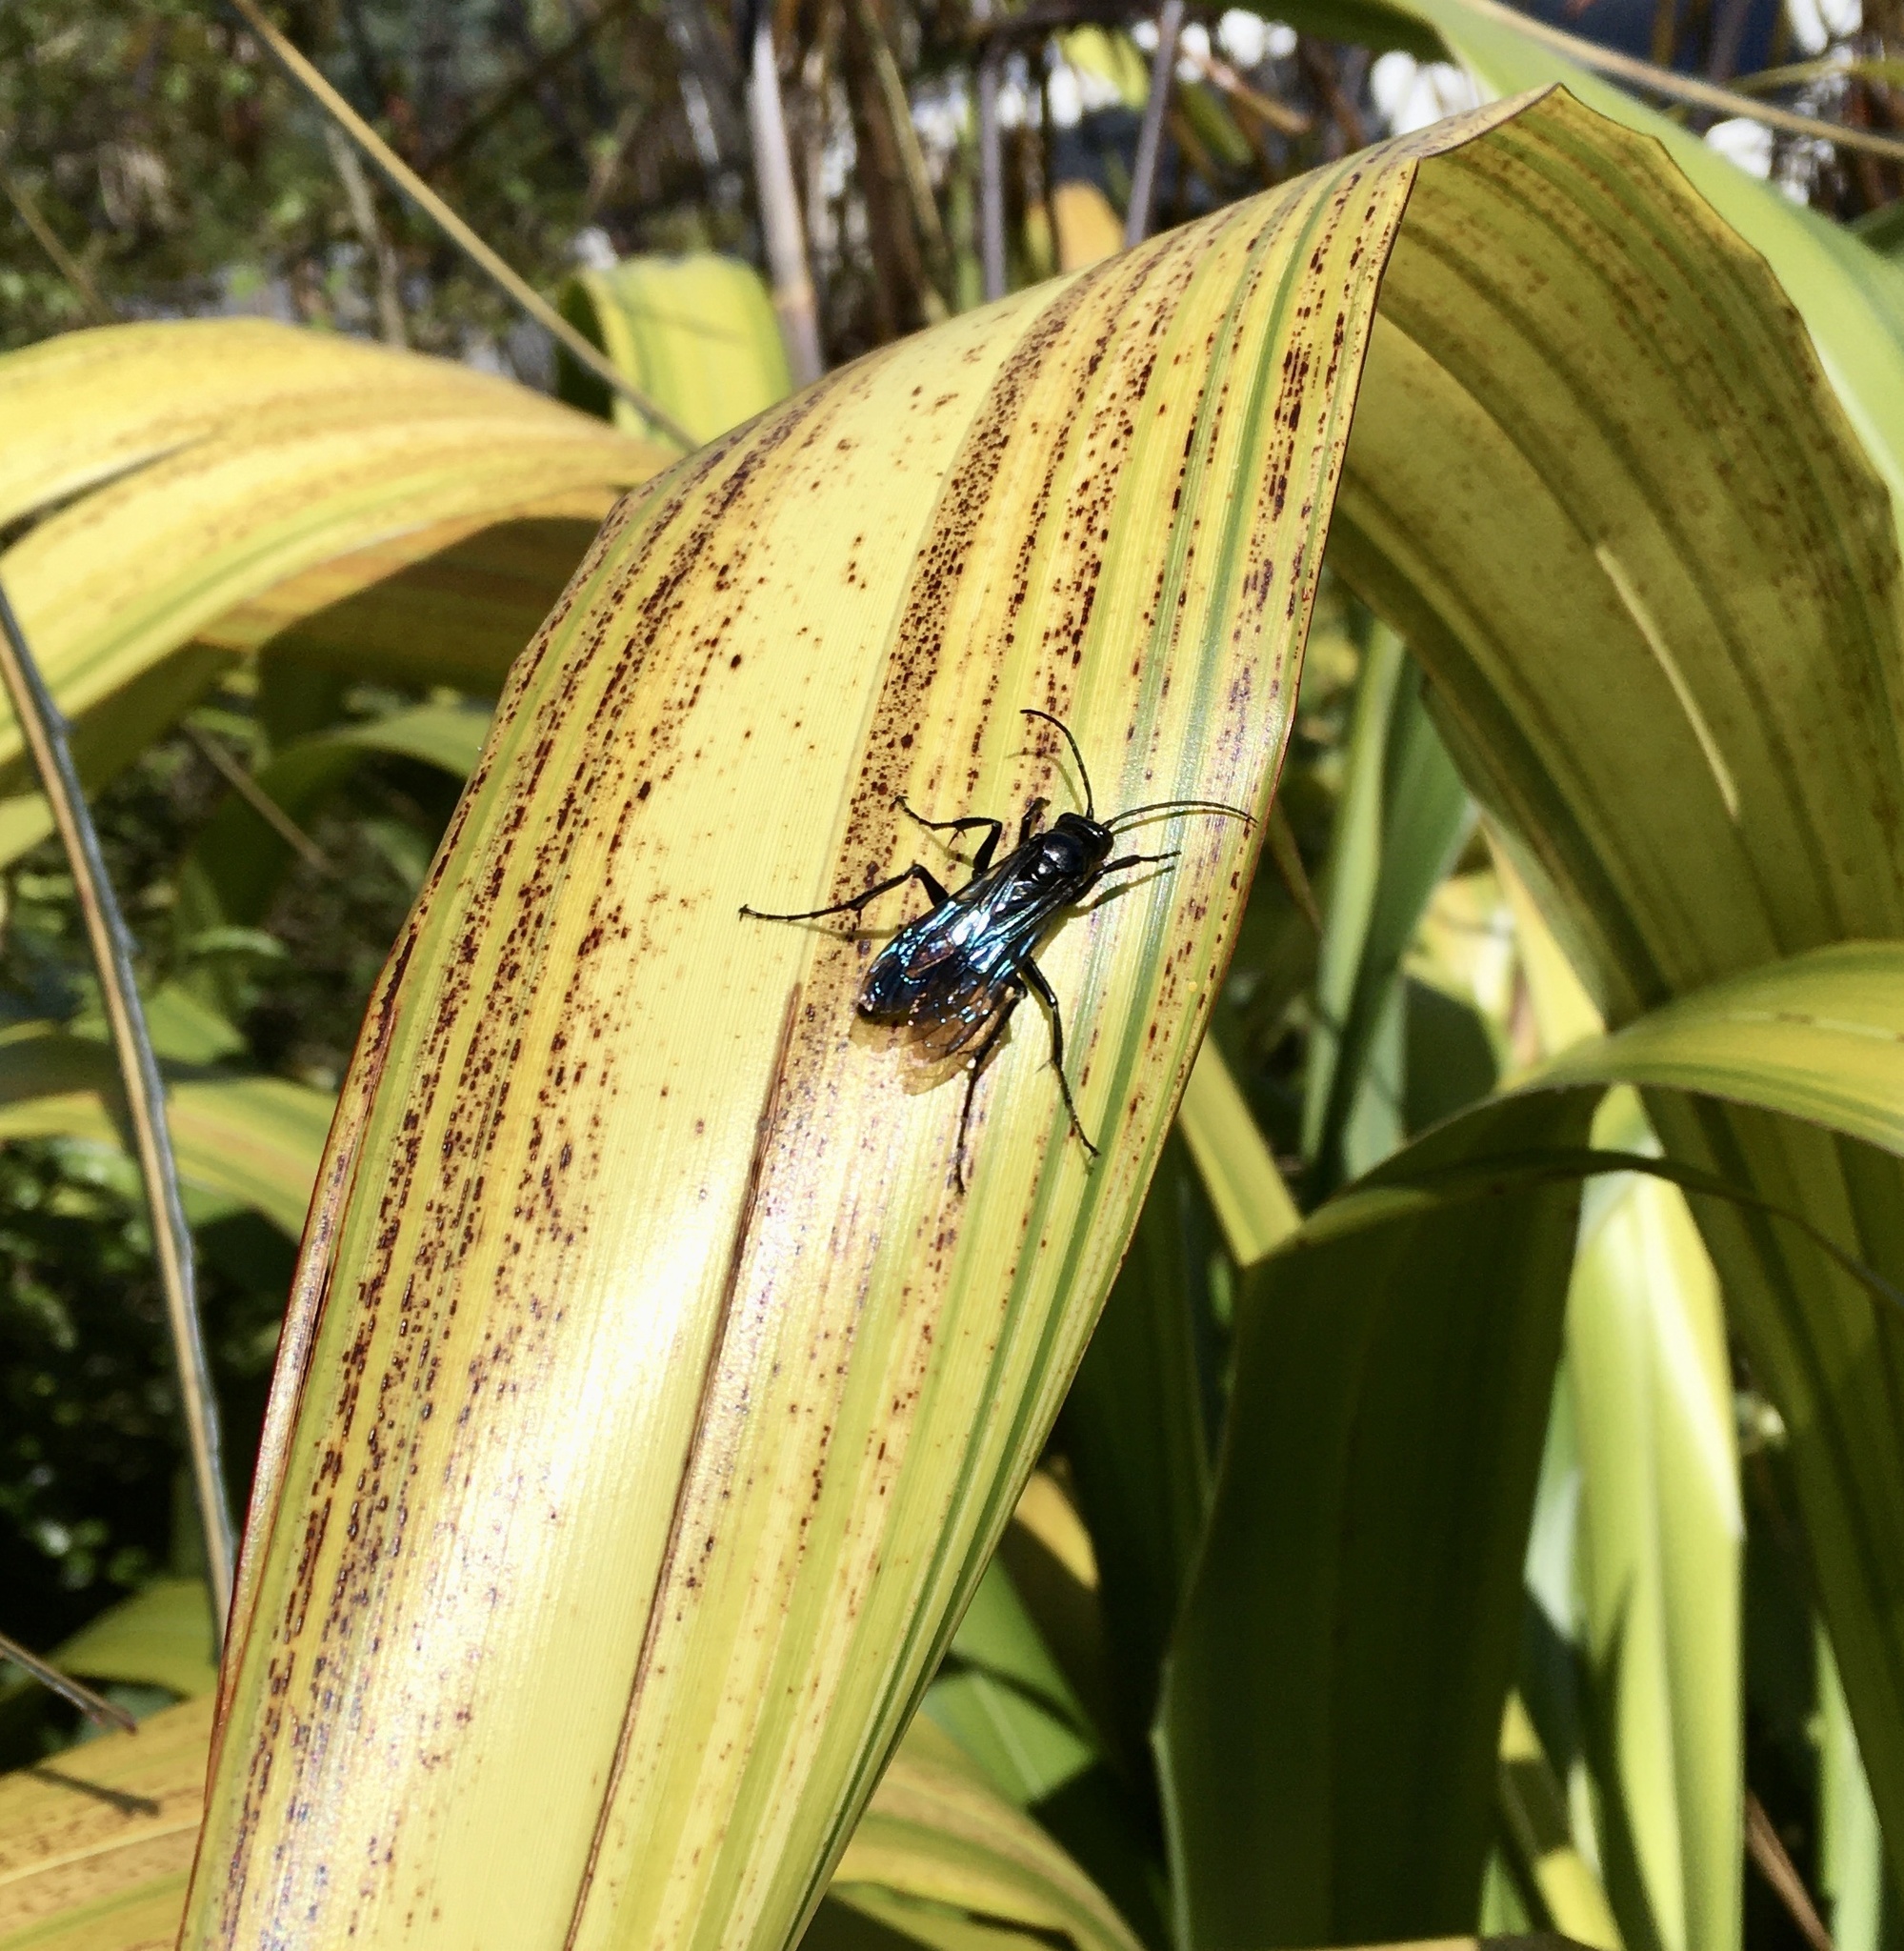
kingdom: Animalia
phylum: Arthropoda
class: Insecta
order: Hymenoptera
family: Pompilidae
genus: Priocnemis
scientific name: Priocnemis monachus
